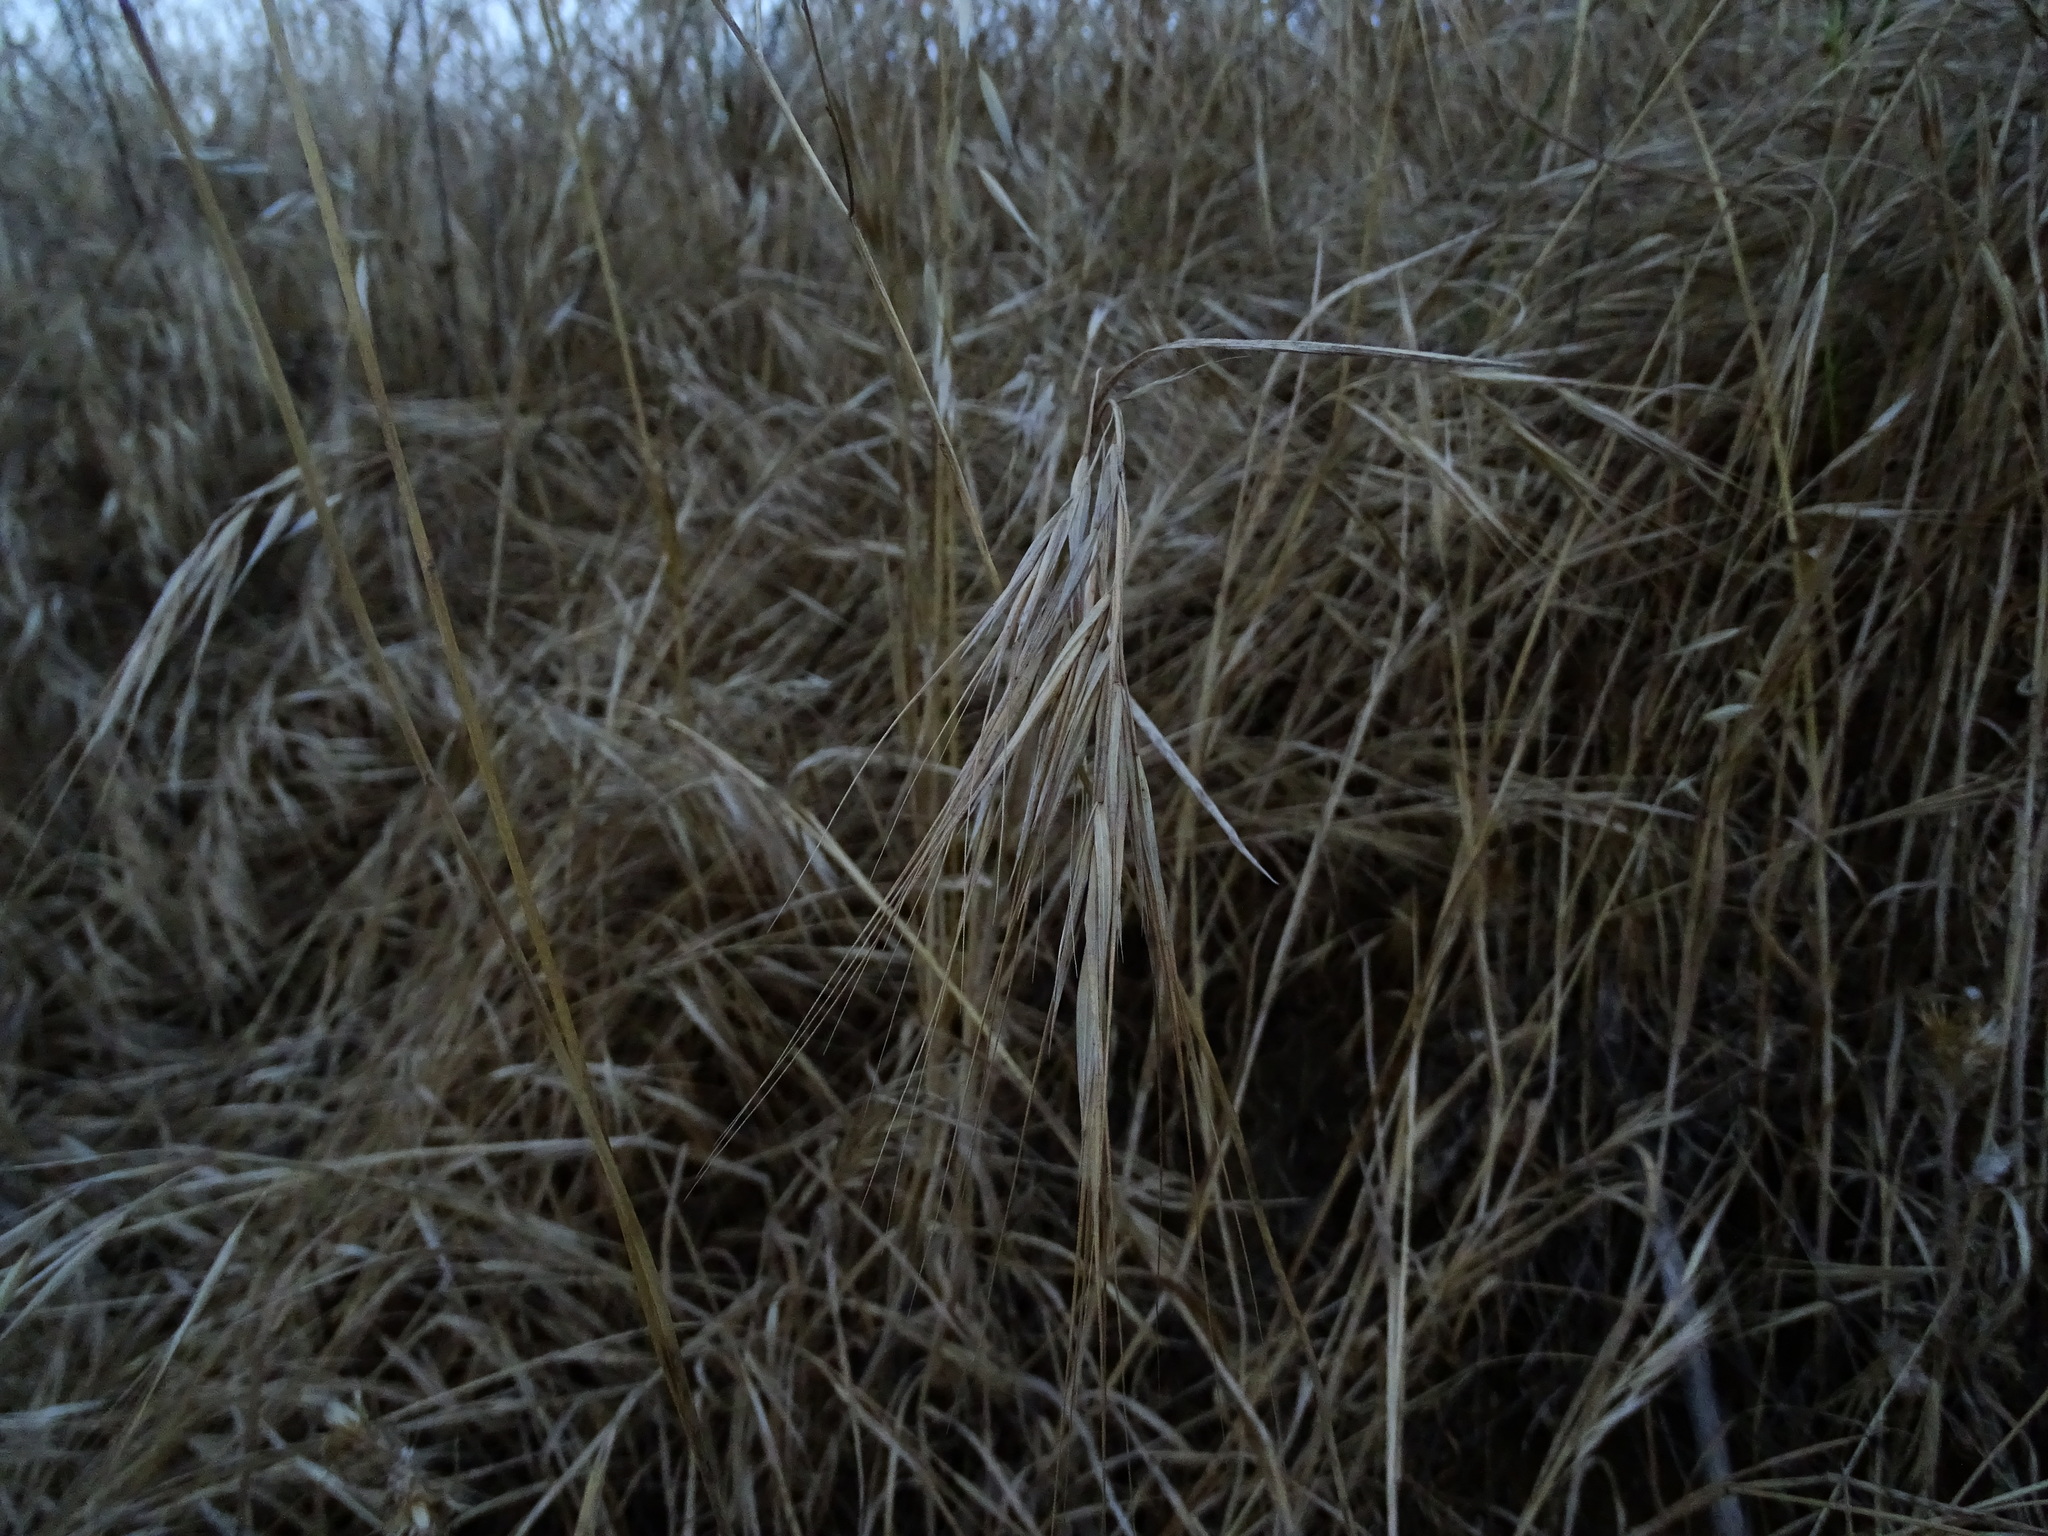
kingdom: Plantae
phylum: Tracheophyta
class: Liliopsida
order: Poales
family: Poaceae
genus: Bromus
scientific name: Bromus diandrus
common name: Ripgut brome
